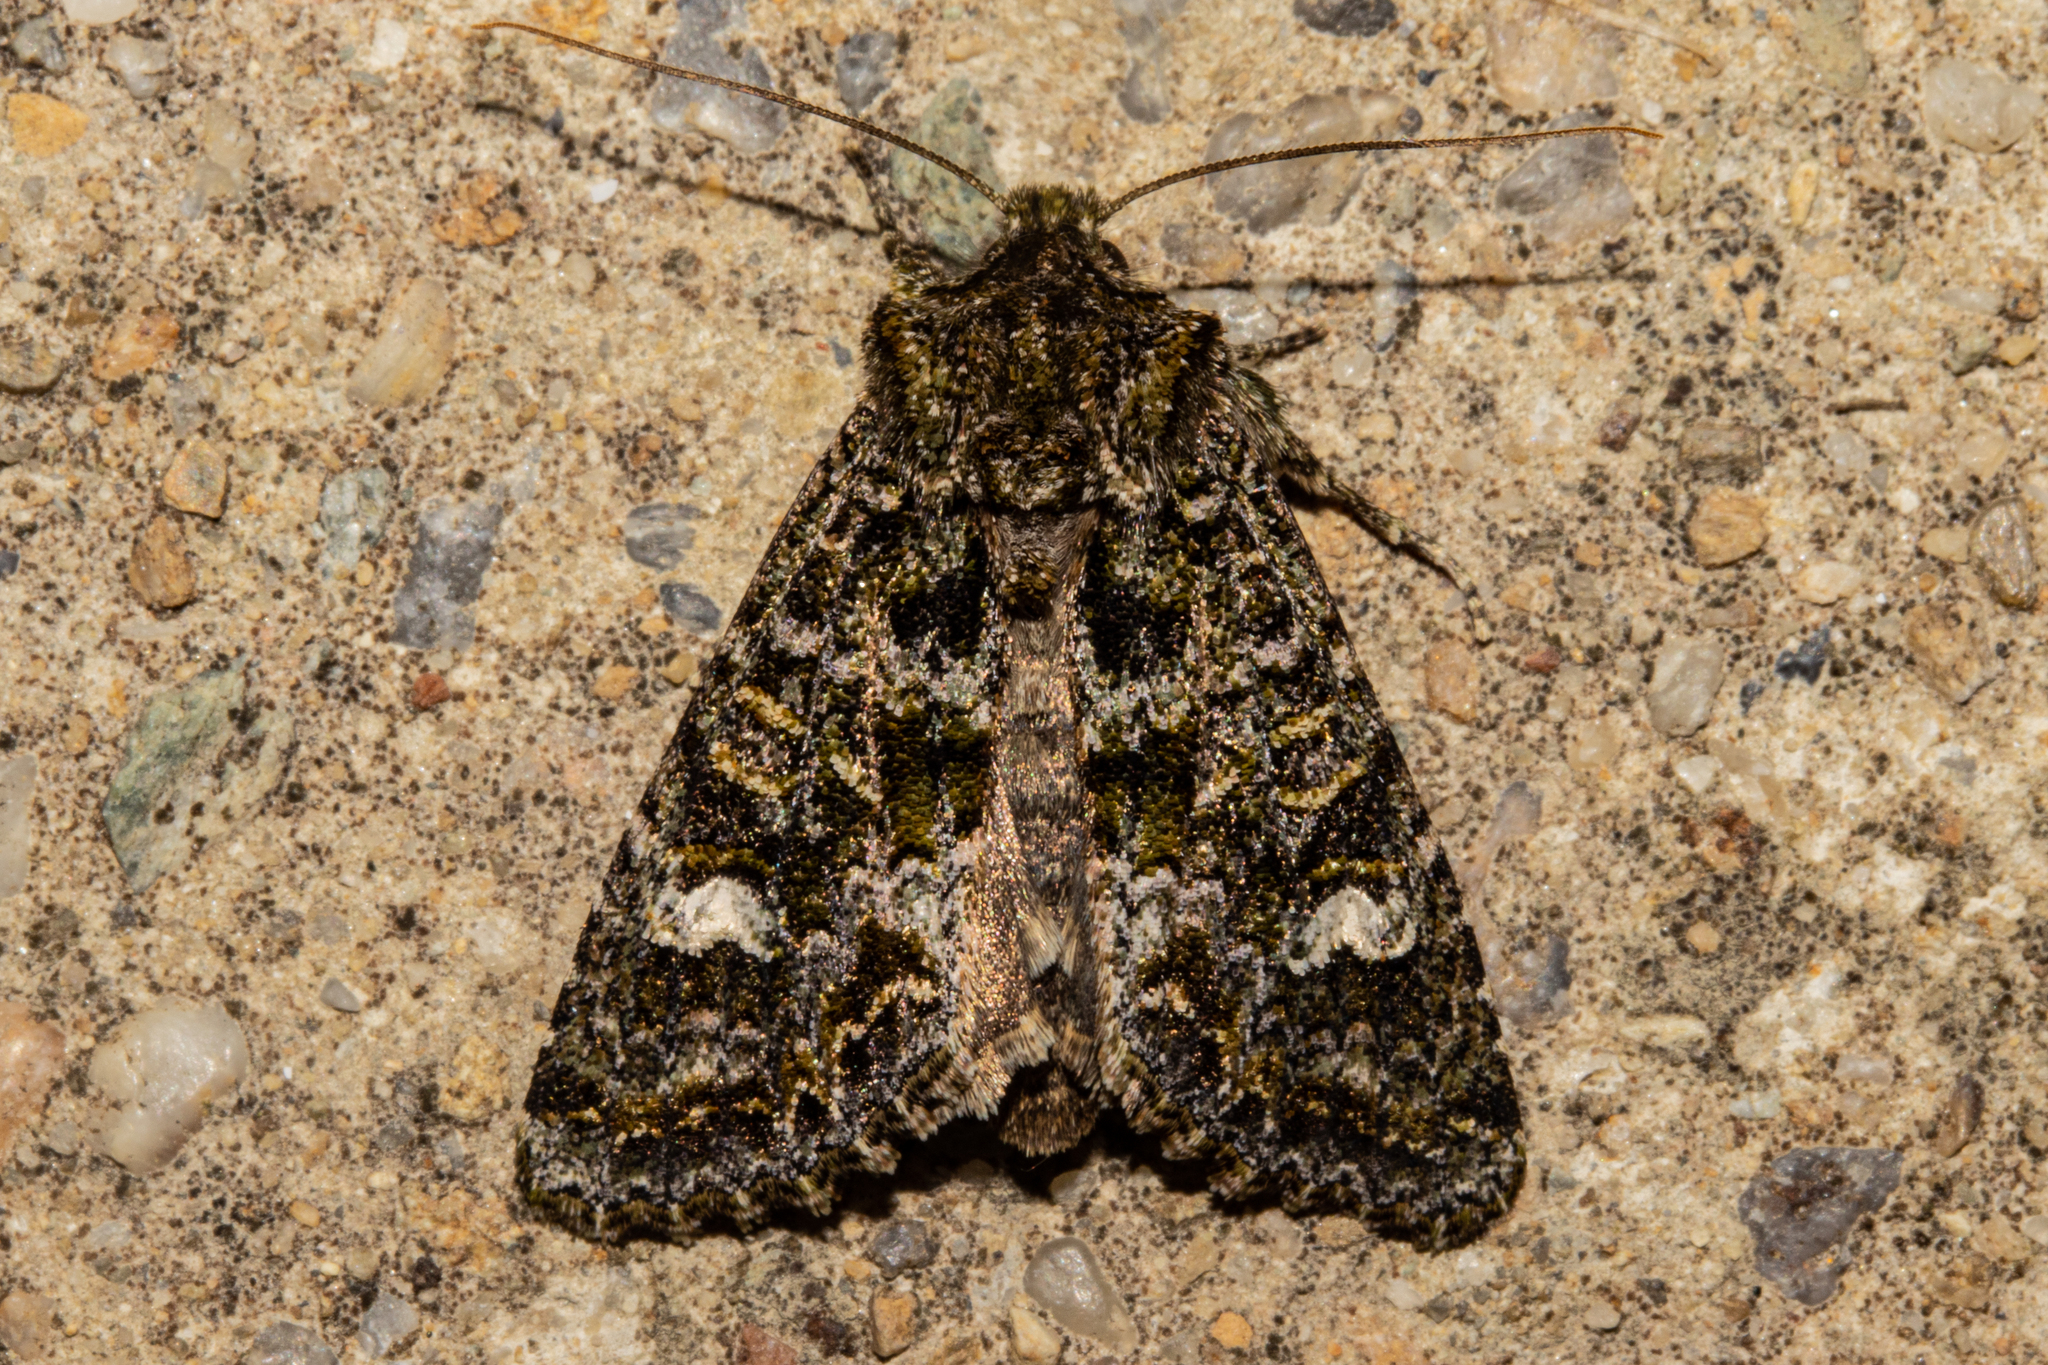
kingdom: Animalia
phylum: Arthropoda
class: Insecta
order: Lepidoptera
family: Noctuidae
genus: Ichneutica
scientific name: Ichneutica
